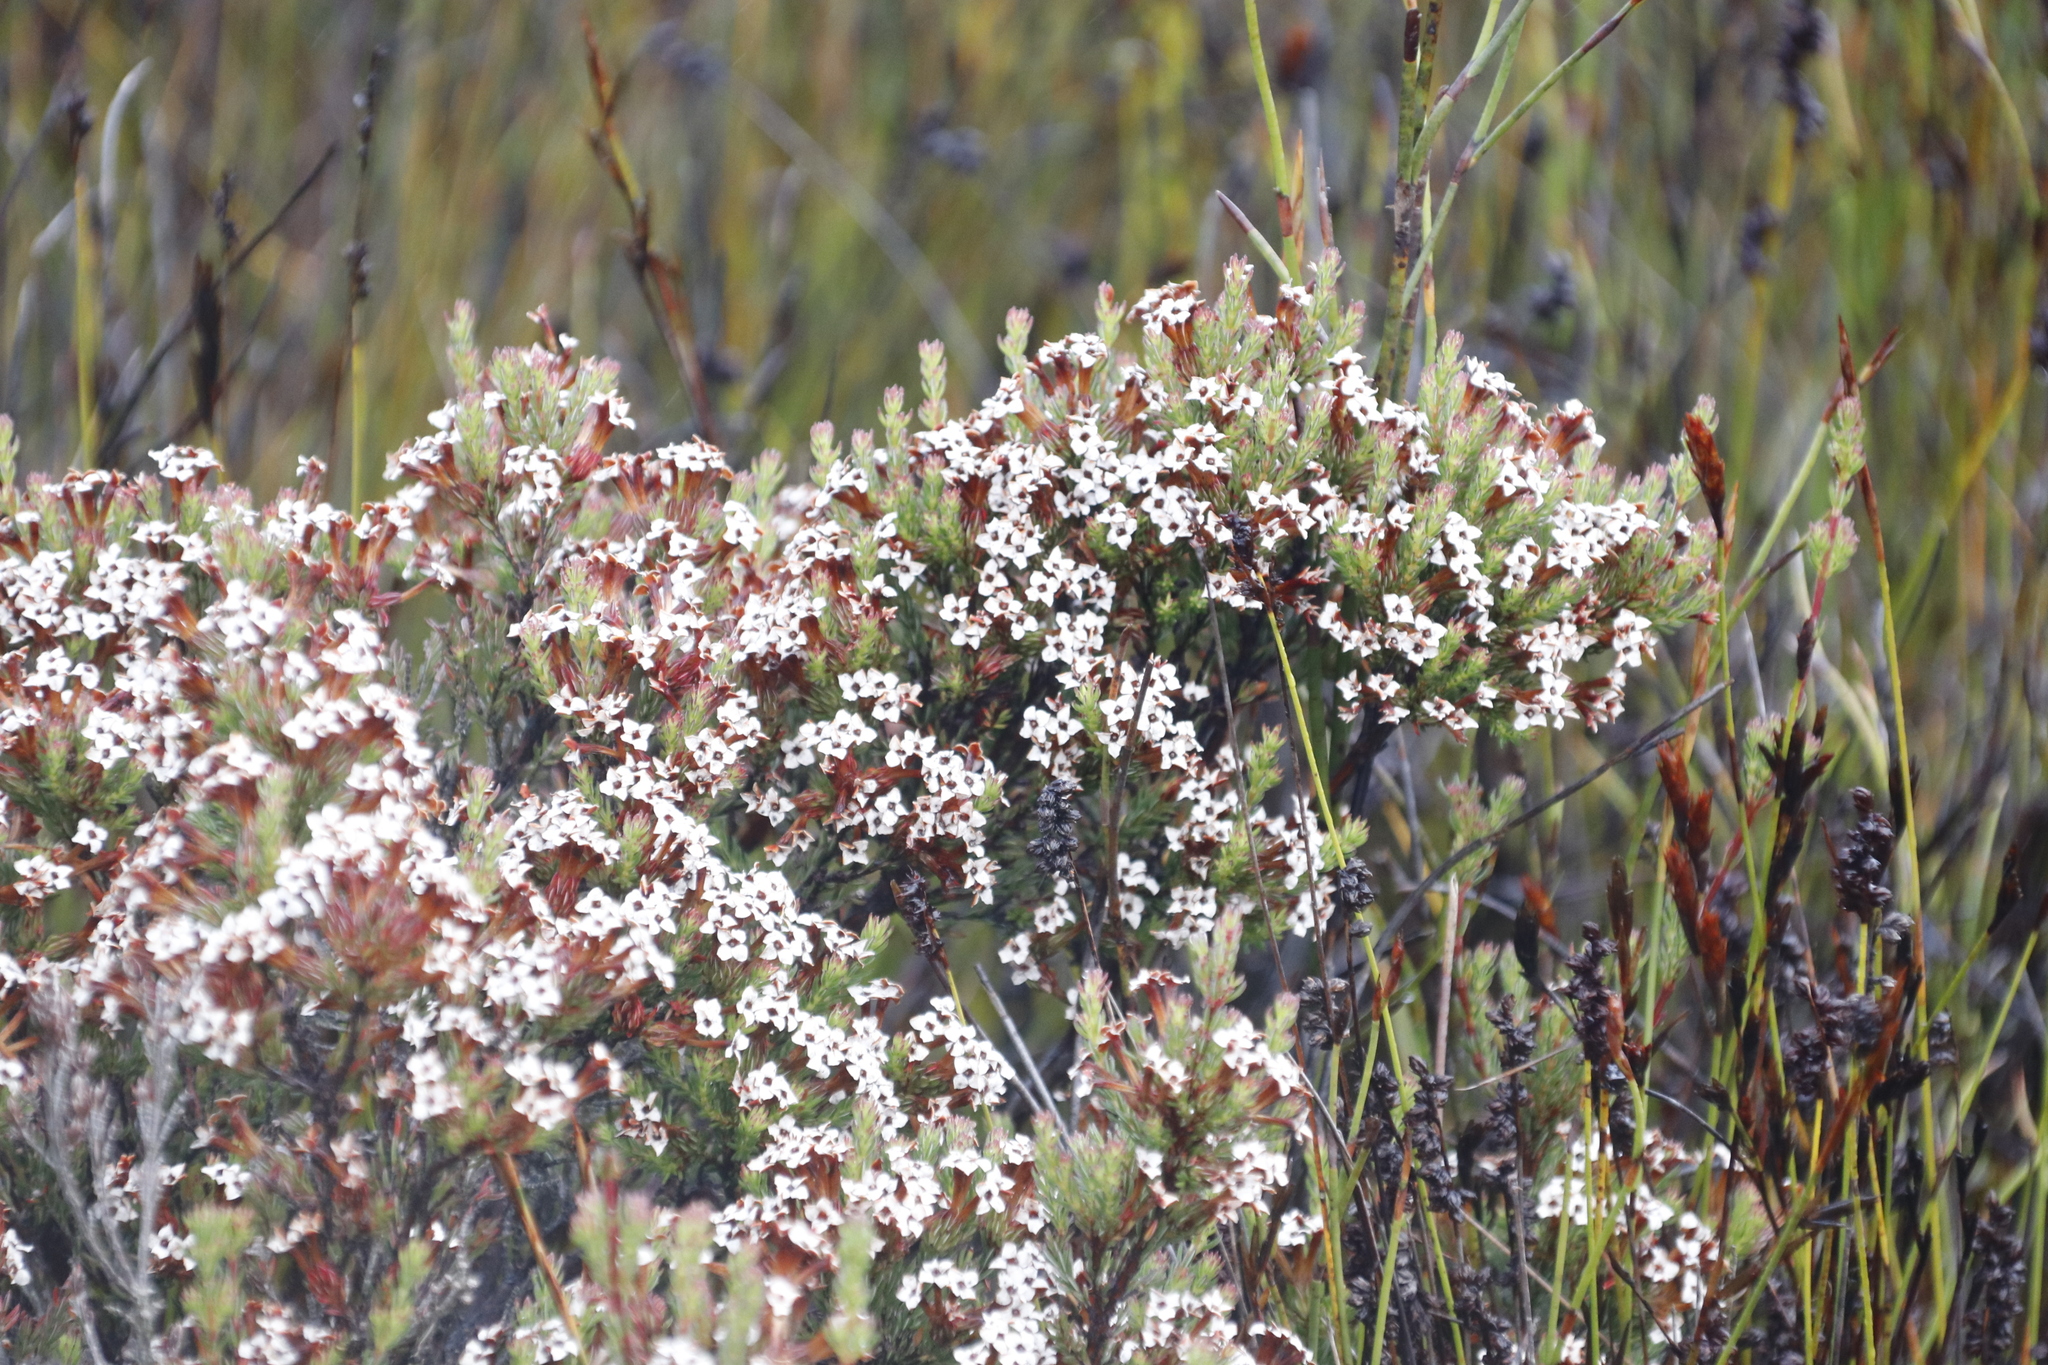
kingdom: Plantae
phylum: Tracheophyta
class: Magnoliopsida
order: Ericales
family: Ericaceae
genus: Erica
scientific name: Erica fastigiata
